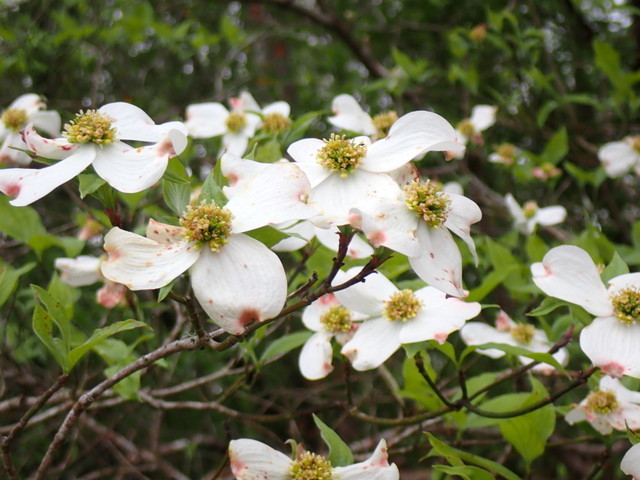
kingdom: Plantae
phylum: Tracheophyta
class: Magnoliopsida
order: Cornales
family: Cornaceae
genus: Cornus
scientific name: Cornus florida
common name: Flowering dogwood
